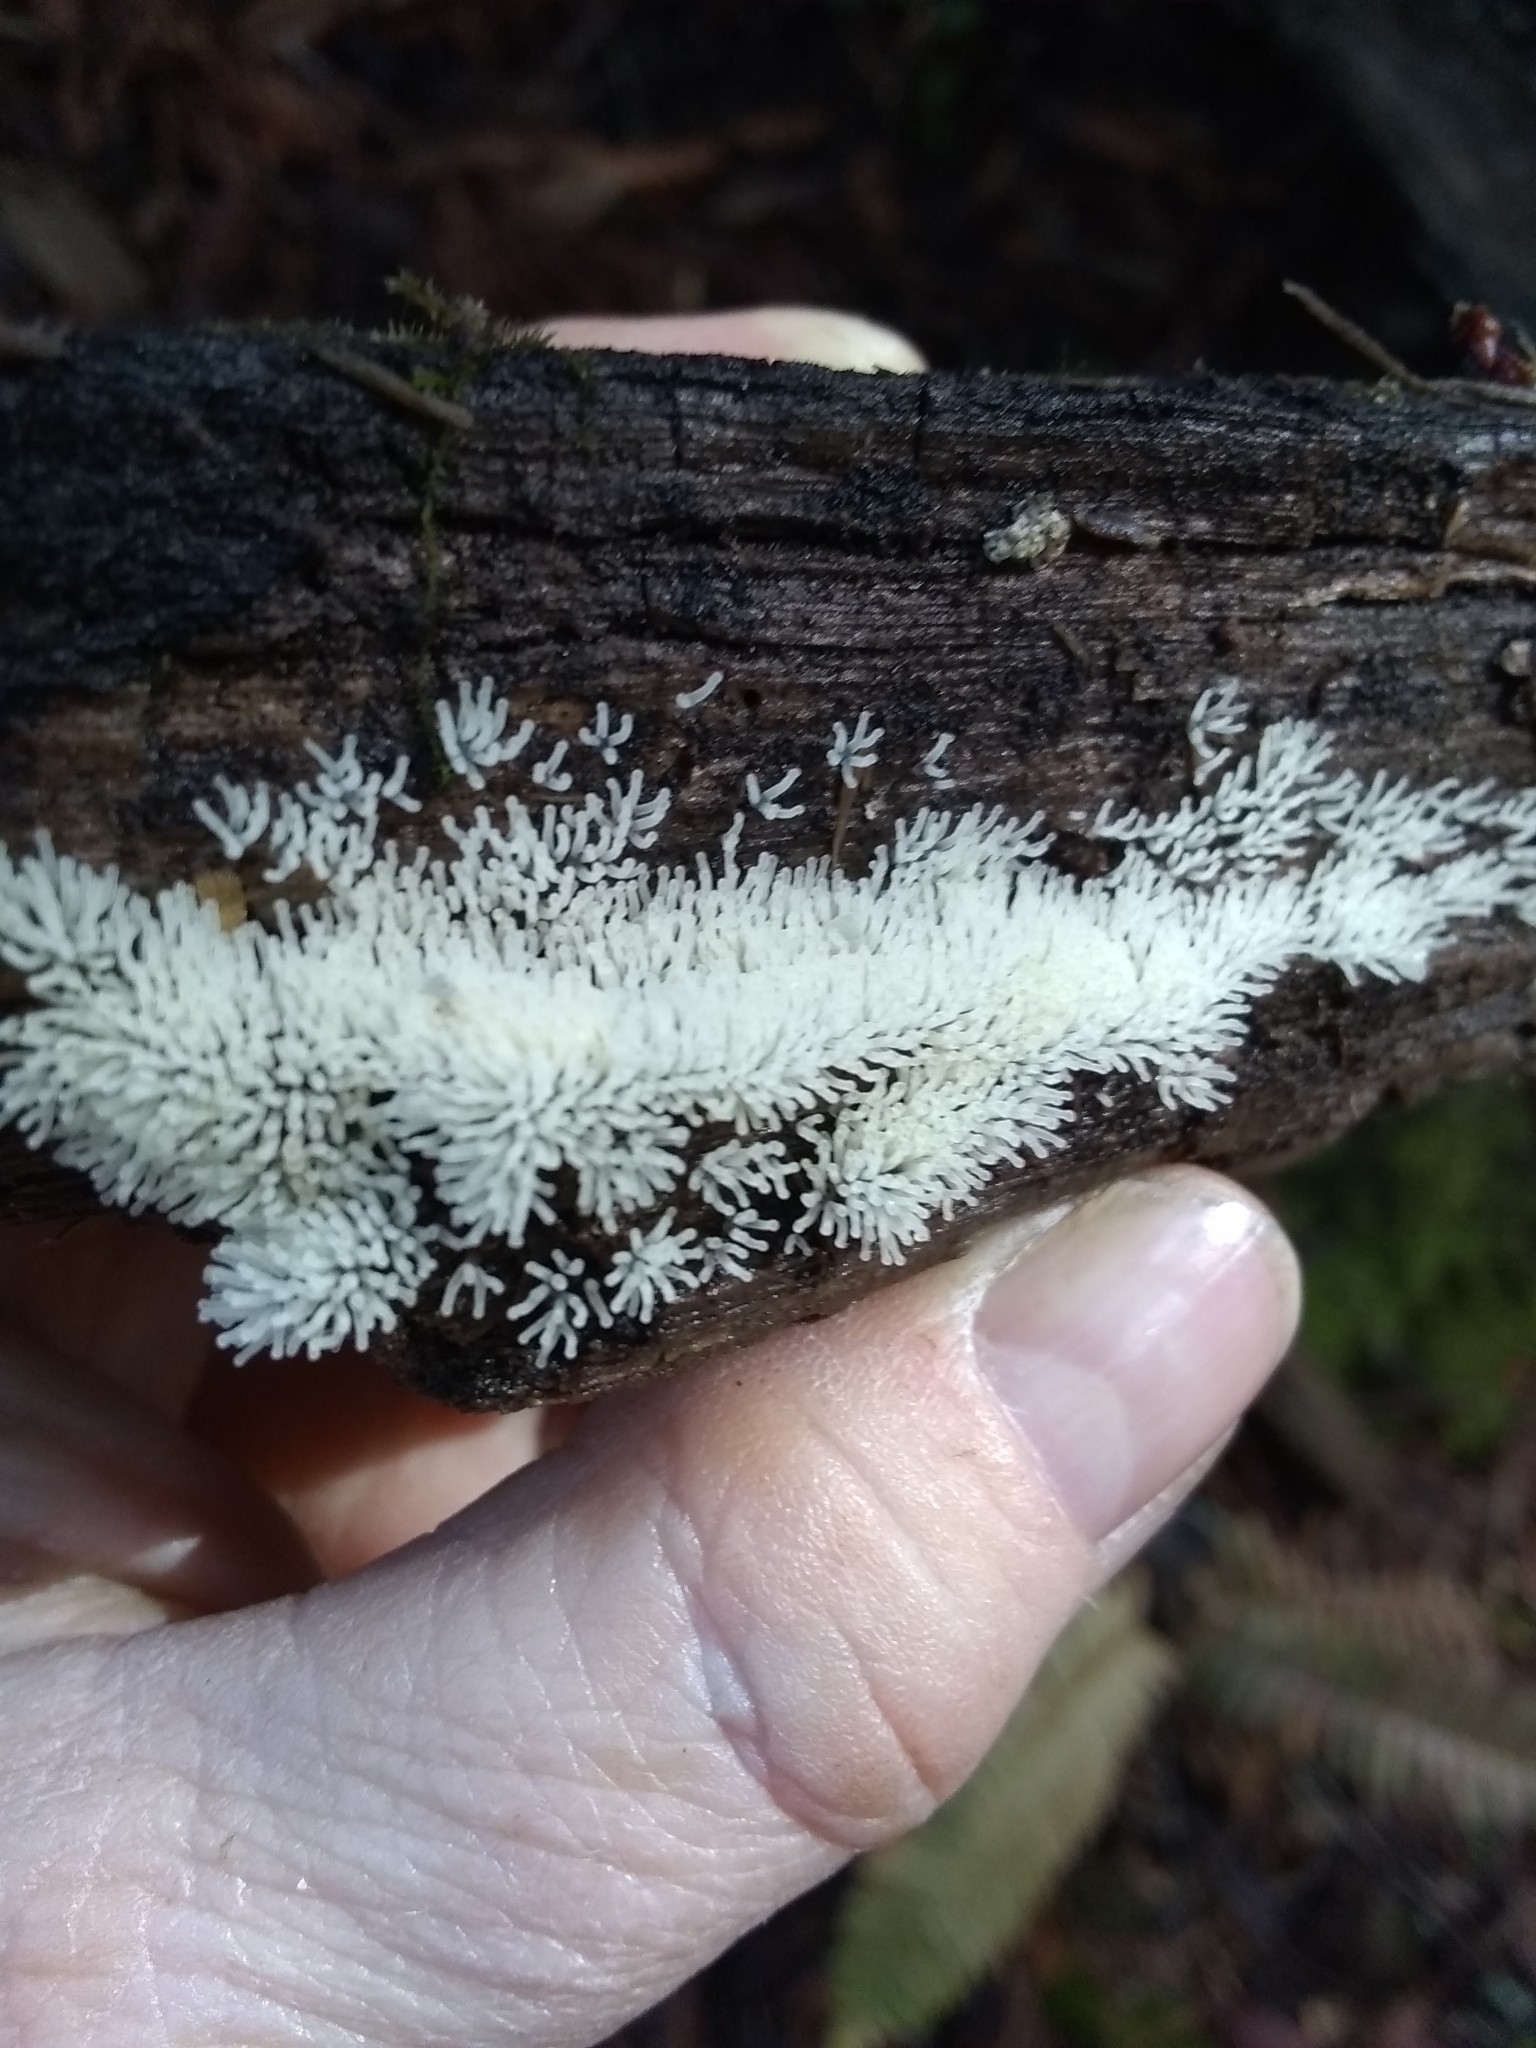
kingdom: Protozoa
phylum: Mycetozoa
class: Protosteliomycetes
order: Ceratiomyxales
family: Ceratiomyxaceae
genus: Ceratiomyxa
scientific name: Ceratiomyxa fruticulosa
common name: Honeycomb coral slime mold
